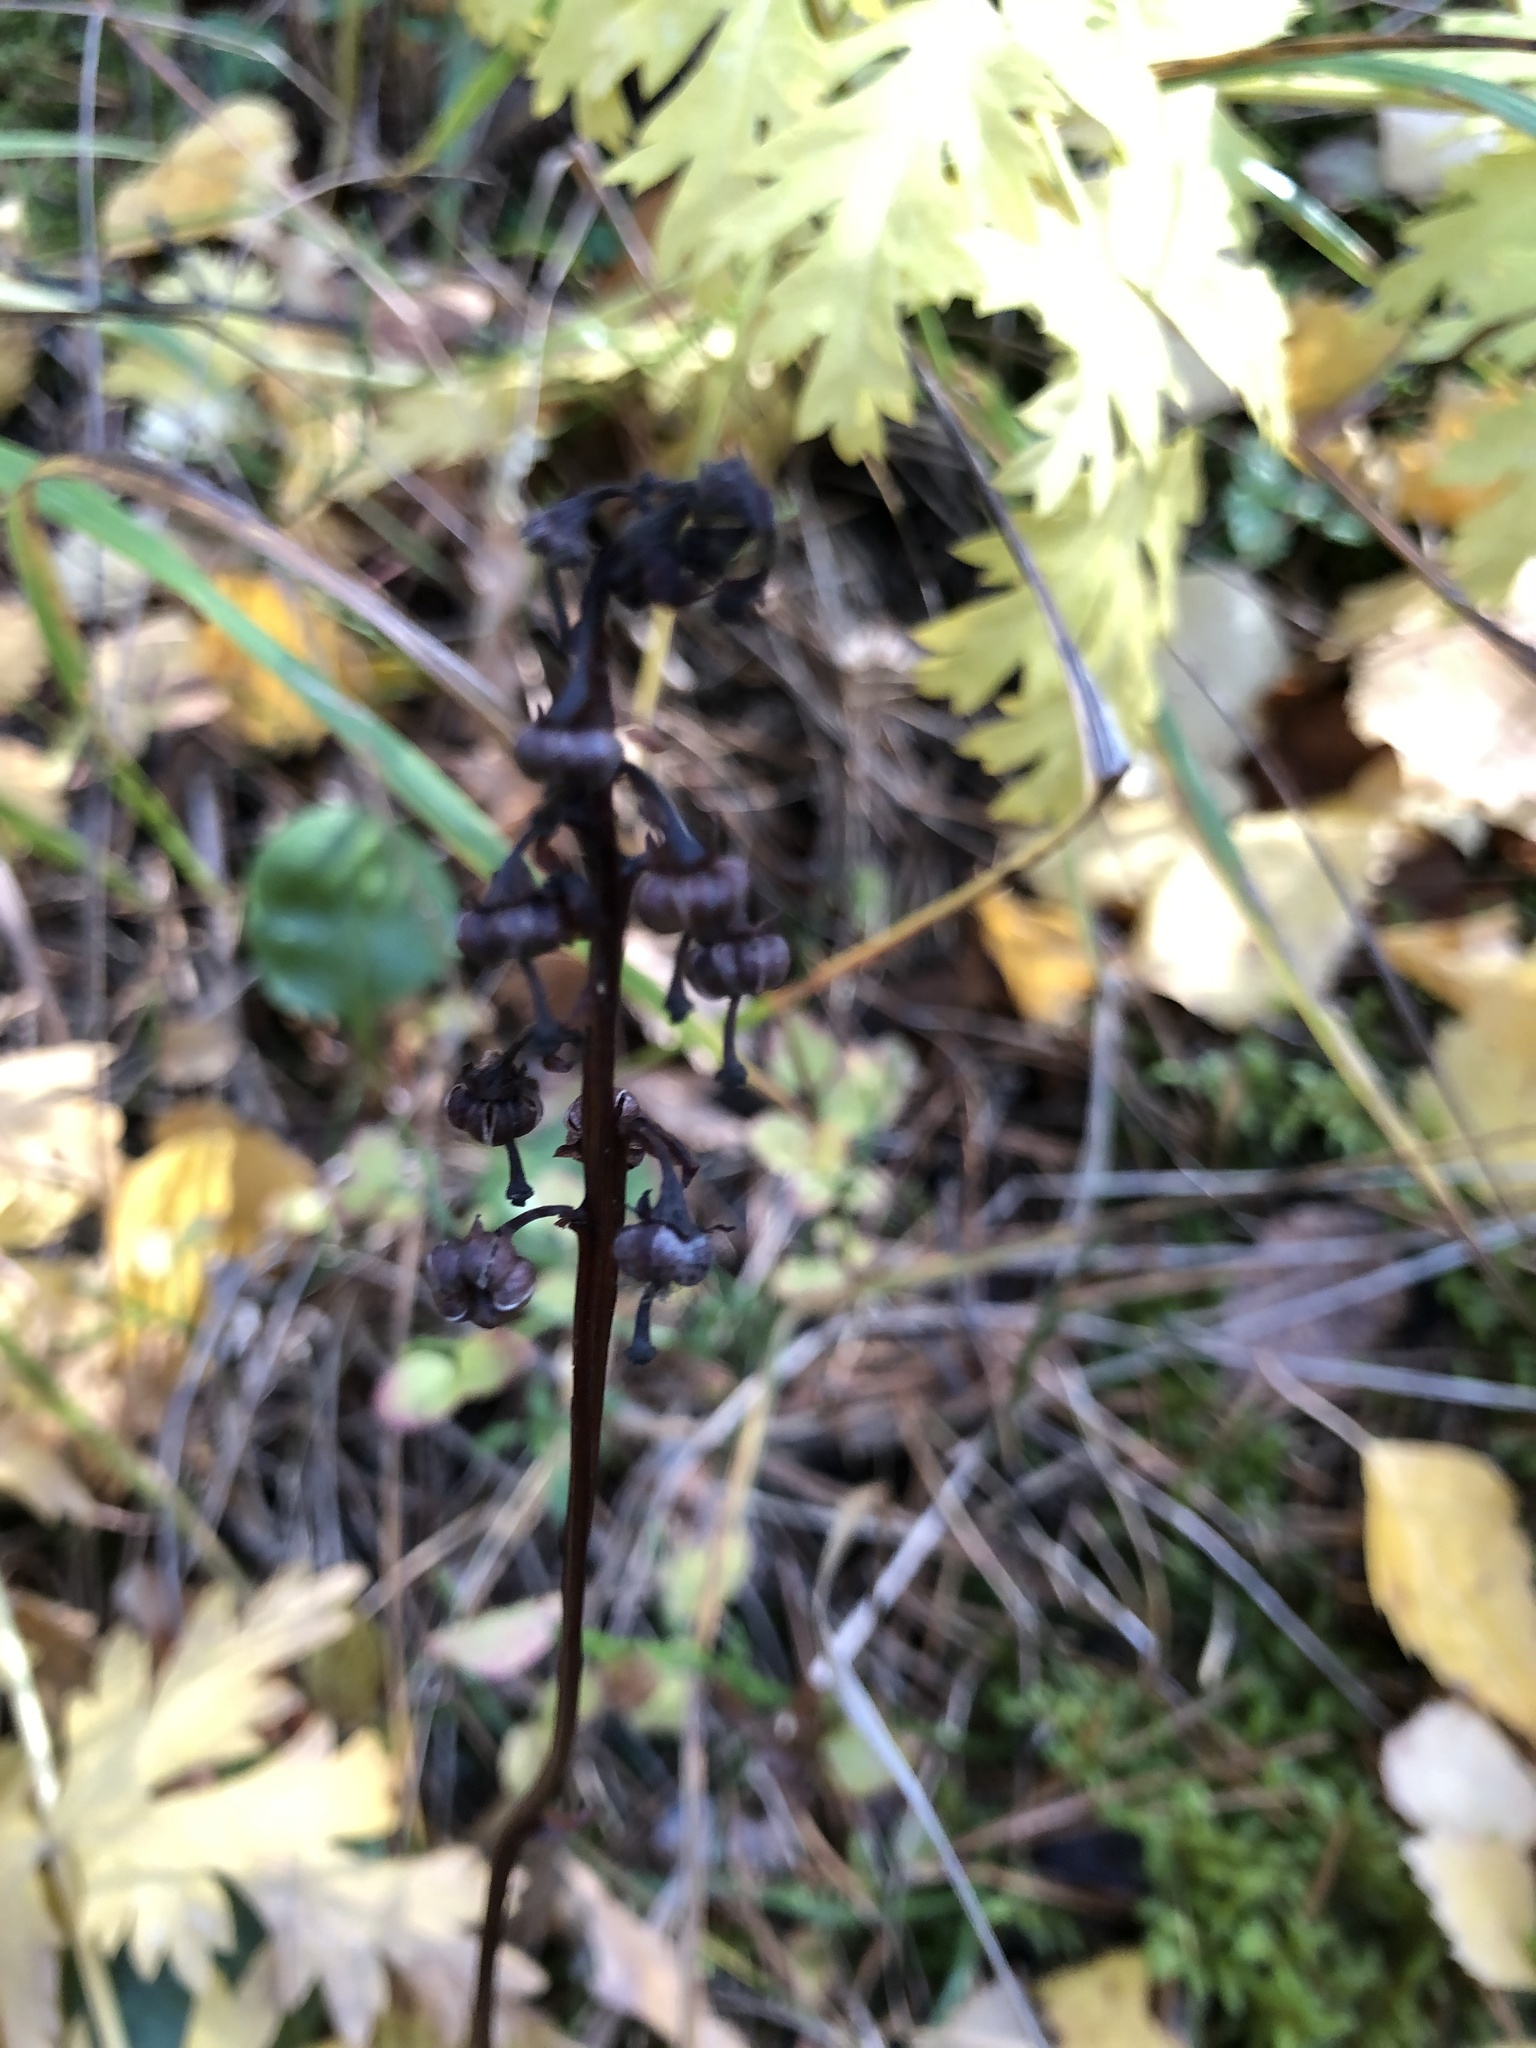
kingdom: Plantae
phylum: Tracheophyta
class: Magnoliopsida
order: Ericales
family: Ericaceae
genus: Pyrola
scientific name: Pyrola rotundifolia
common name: Round-leaved wintergreen
